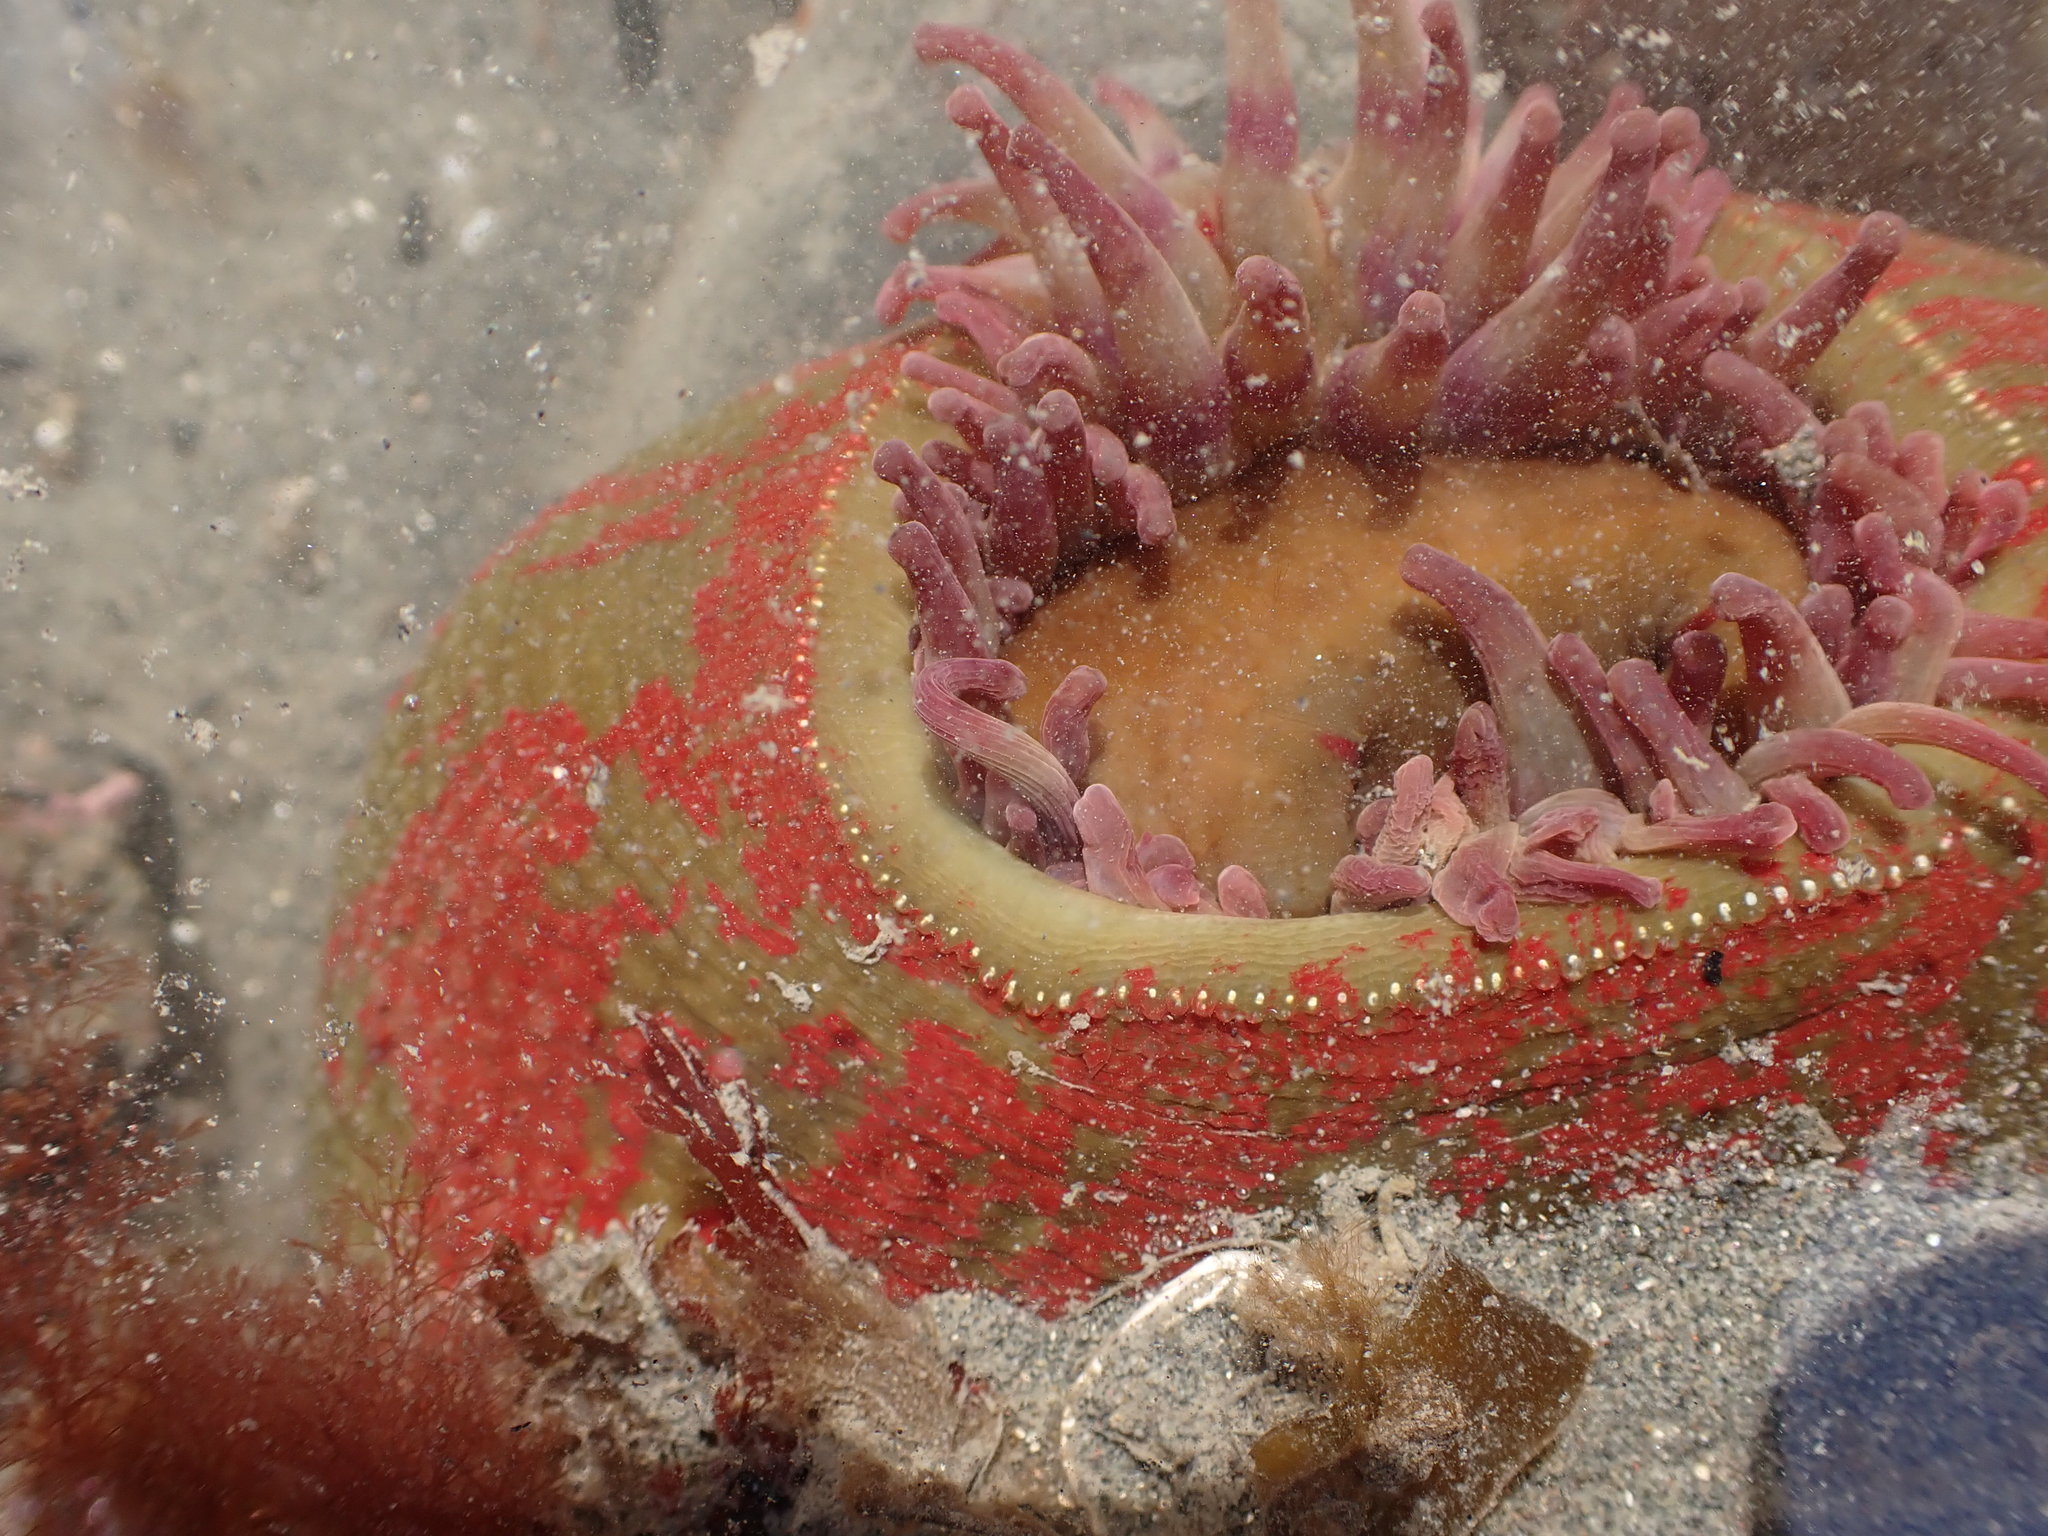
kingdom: Animalia
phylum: Cnidaria
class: Anthozoa
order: Actiniaria
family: Actiniidae
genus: Urticina
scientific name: Urticina grebelnyi
